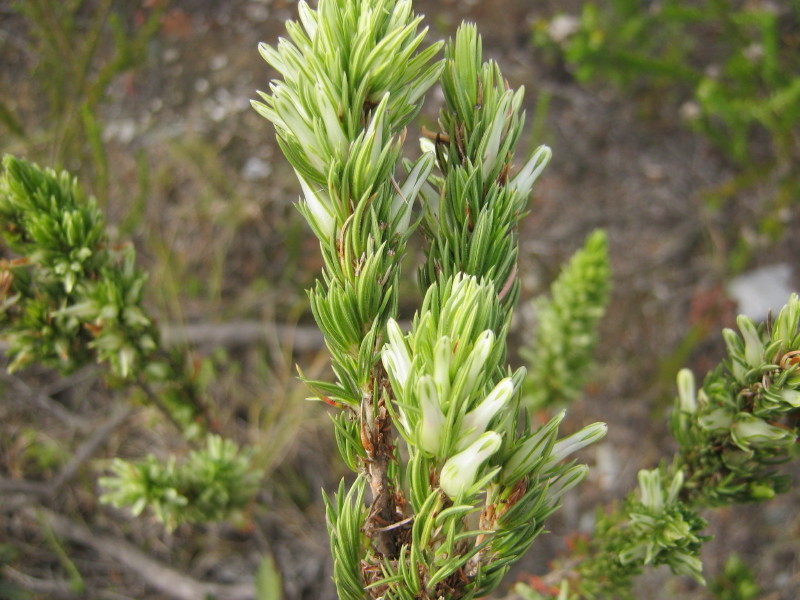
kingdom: Plantae
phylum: Tracheophyta
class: Magnoliopsida
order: Ericales
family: Ericaceae
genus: Erica
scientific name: Erica nabea
